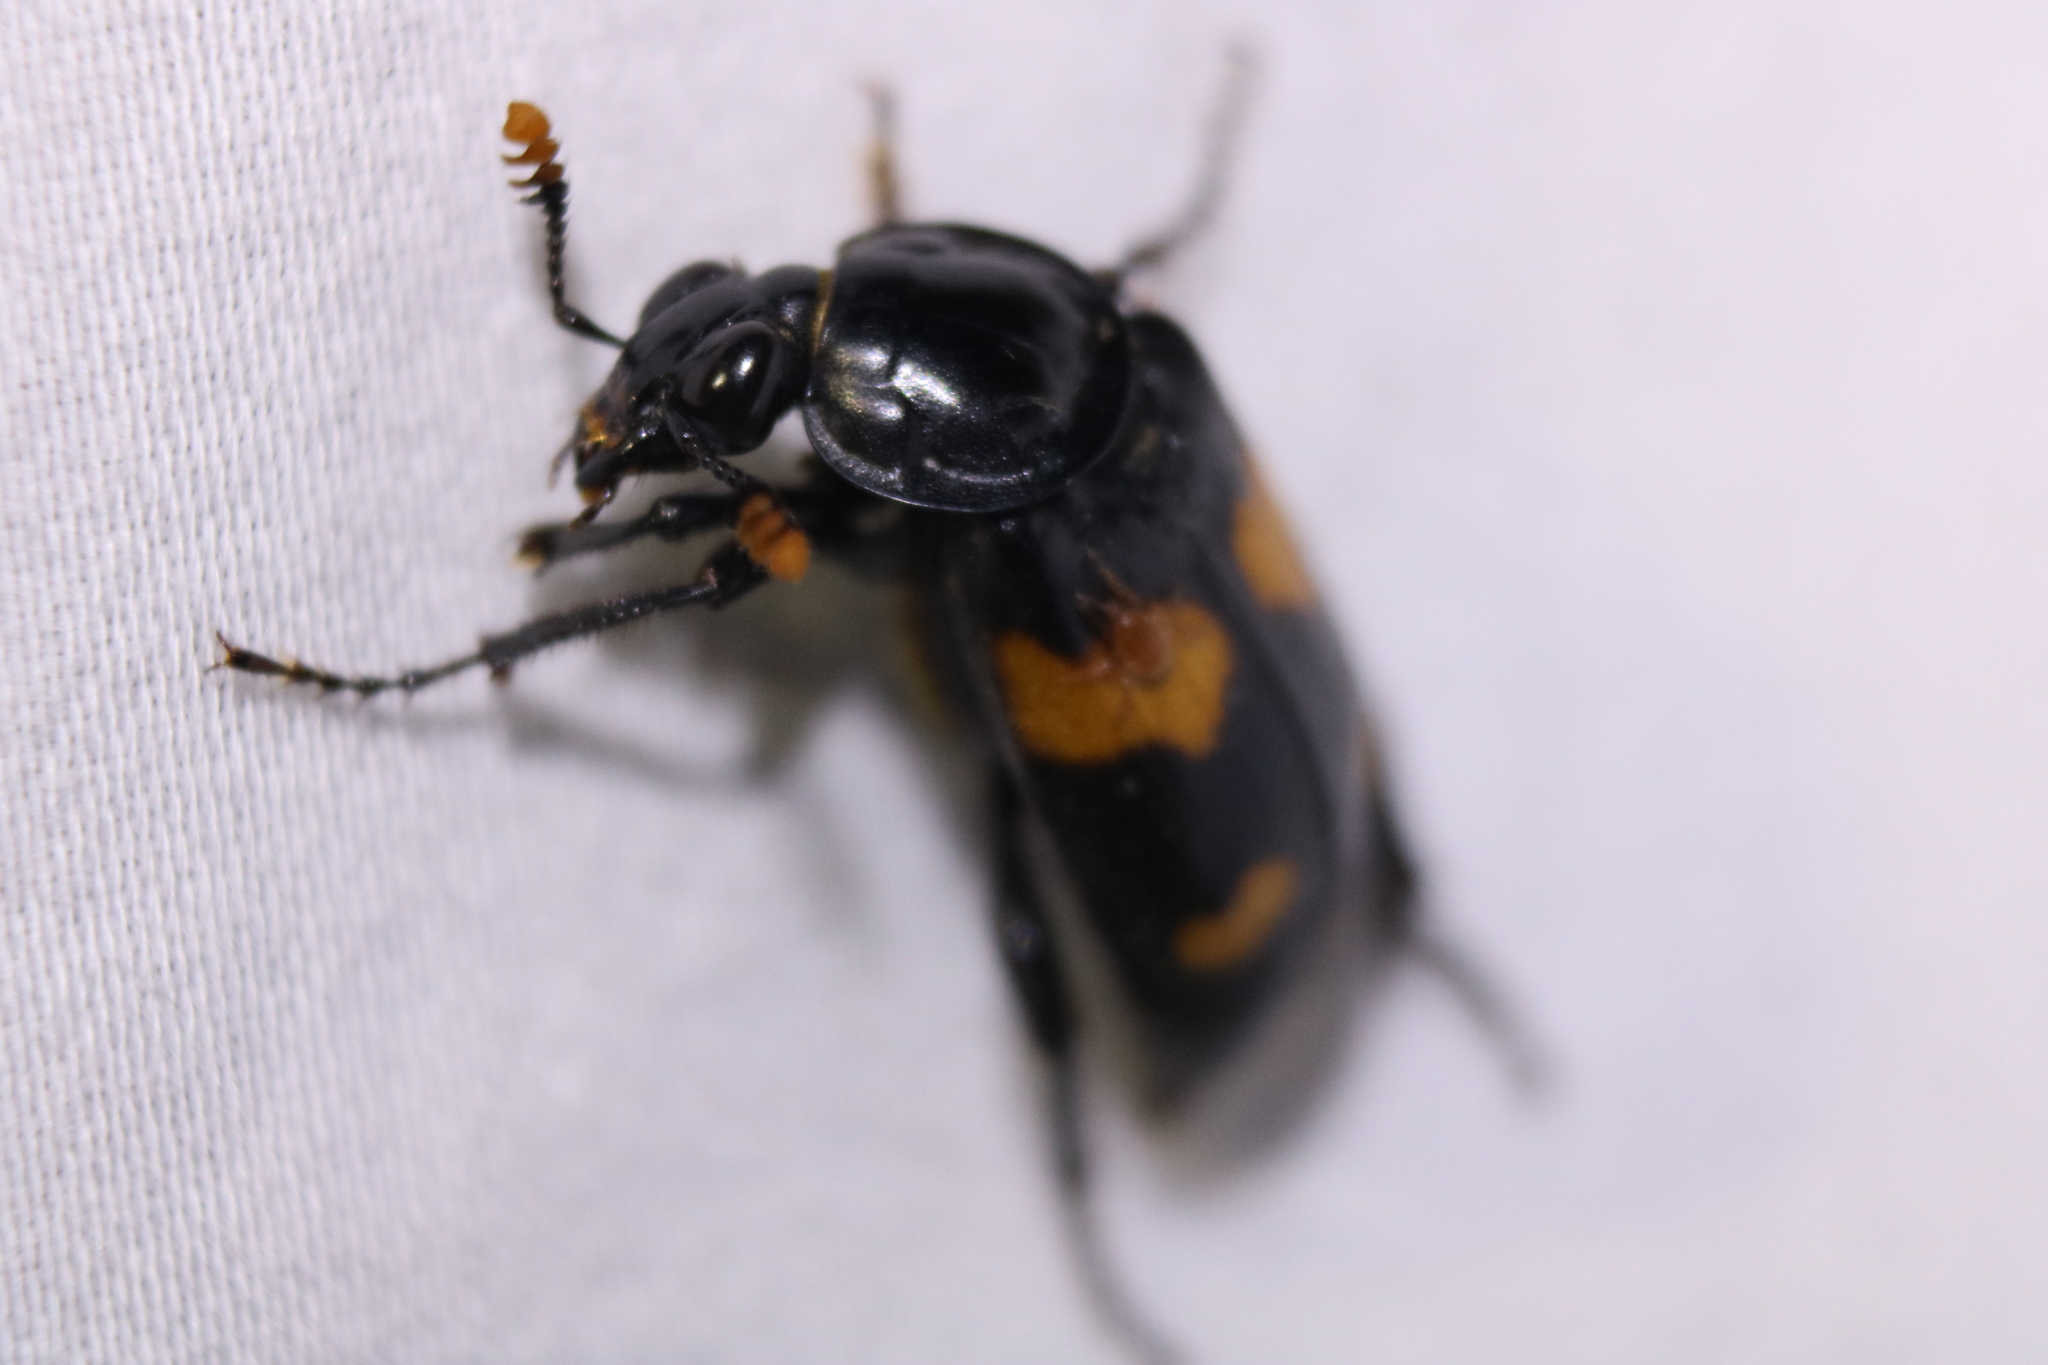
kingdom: Animalia
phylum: Arthropoda
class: Insecta
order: Coleoptera
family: Staphylinidae
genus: Nicrophorus
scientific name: Nicrophorus orbicollis
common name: Roundneck sexton beetle
